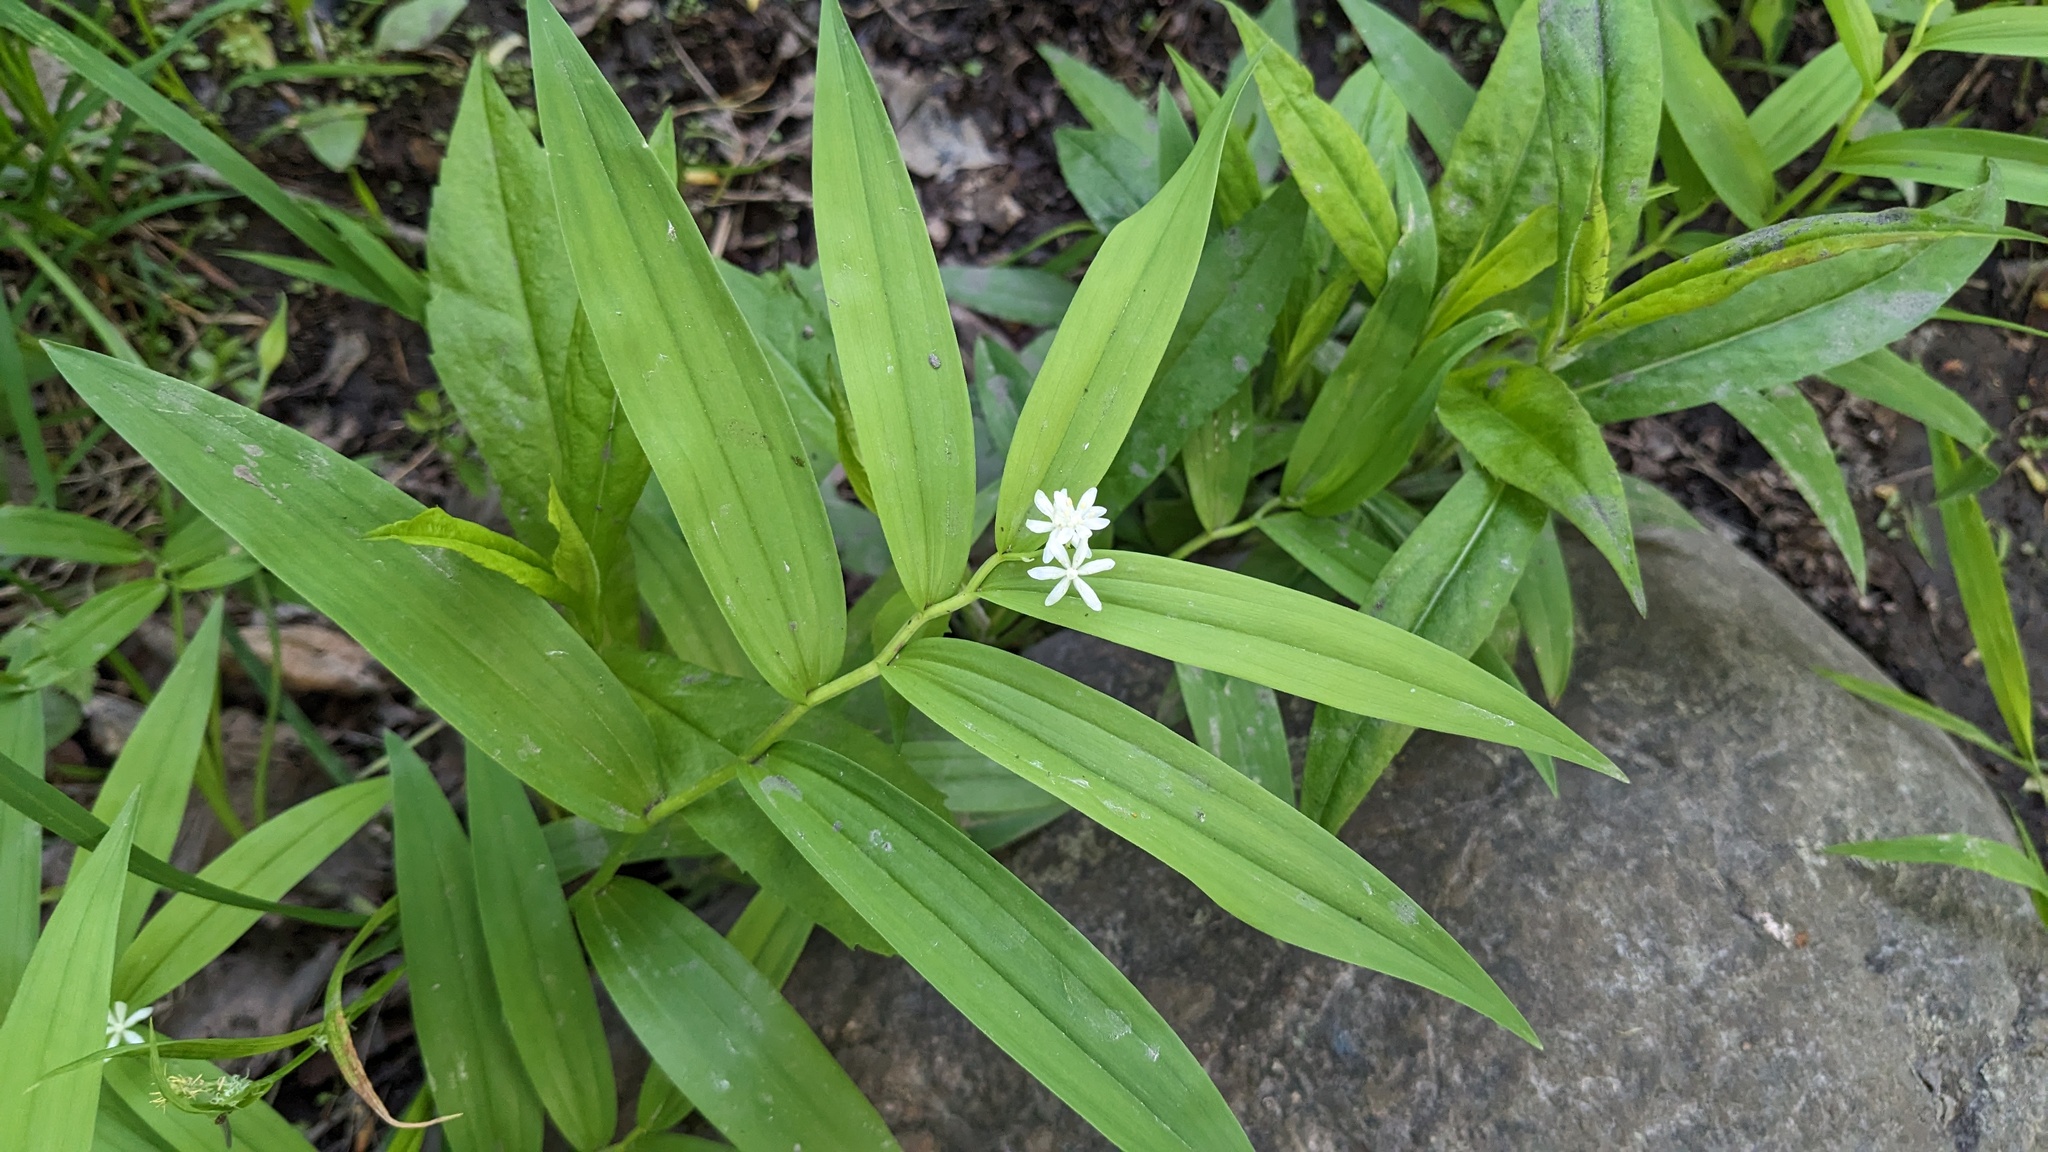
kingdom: Plantae
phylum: Tracheophyta
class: Liliopsida
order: Asparagales
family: Asparagaceae
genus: Maianthemum
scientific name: Maianthemum stellatum
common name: Little false solomon's seal
